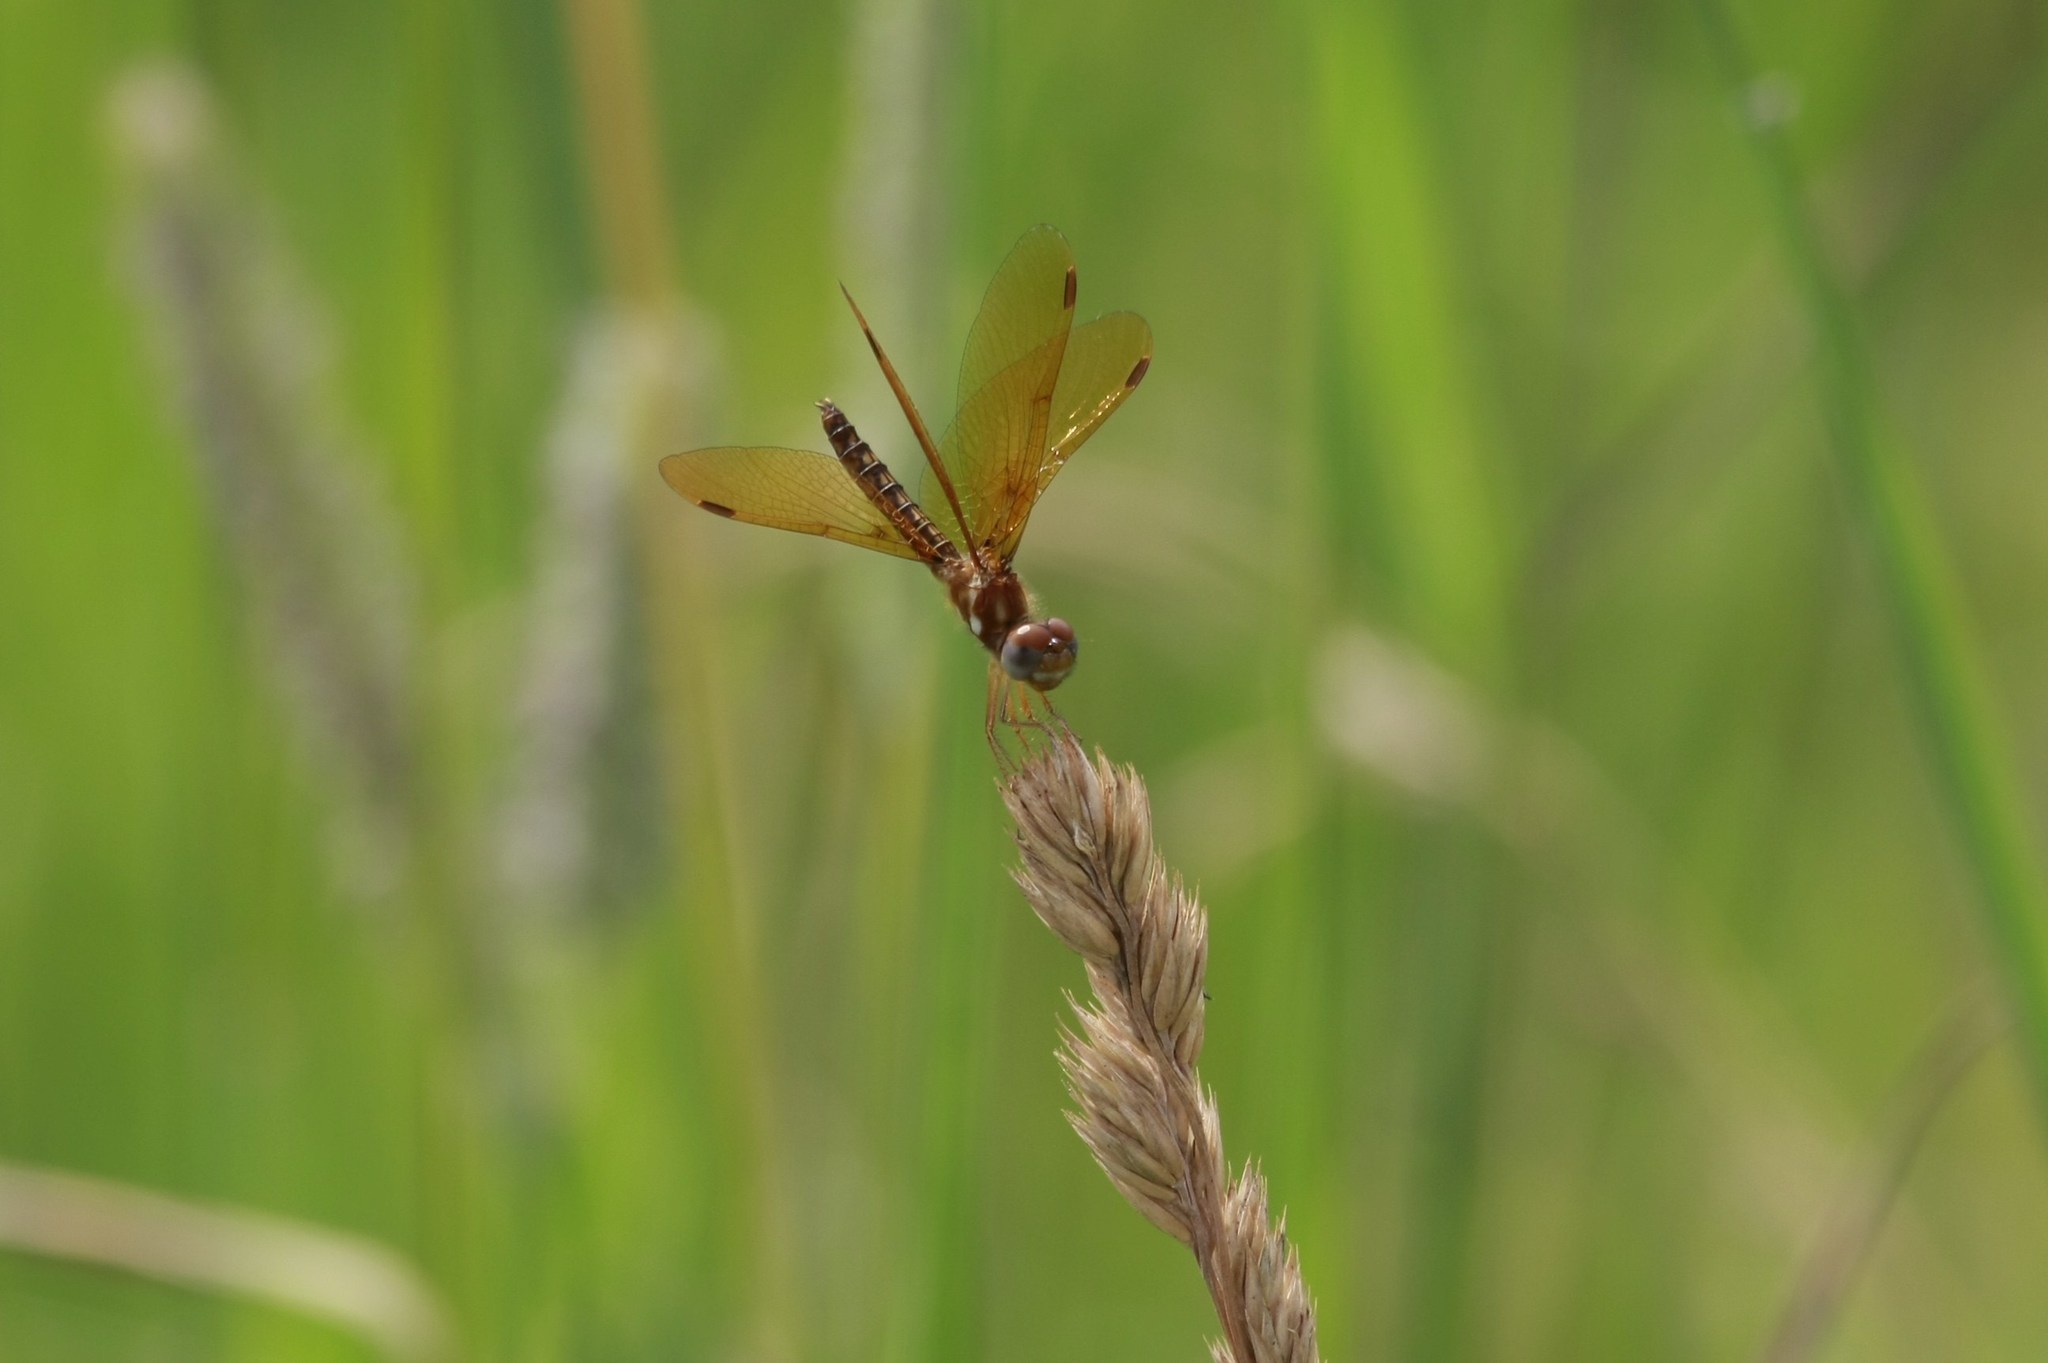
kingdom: Animalia
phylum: Arthropoda
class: Insecta
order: Odonata
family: Libellulidae
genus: Perithemis
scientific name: Perithemis tenera
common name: Eastern amberwing
